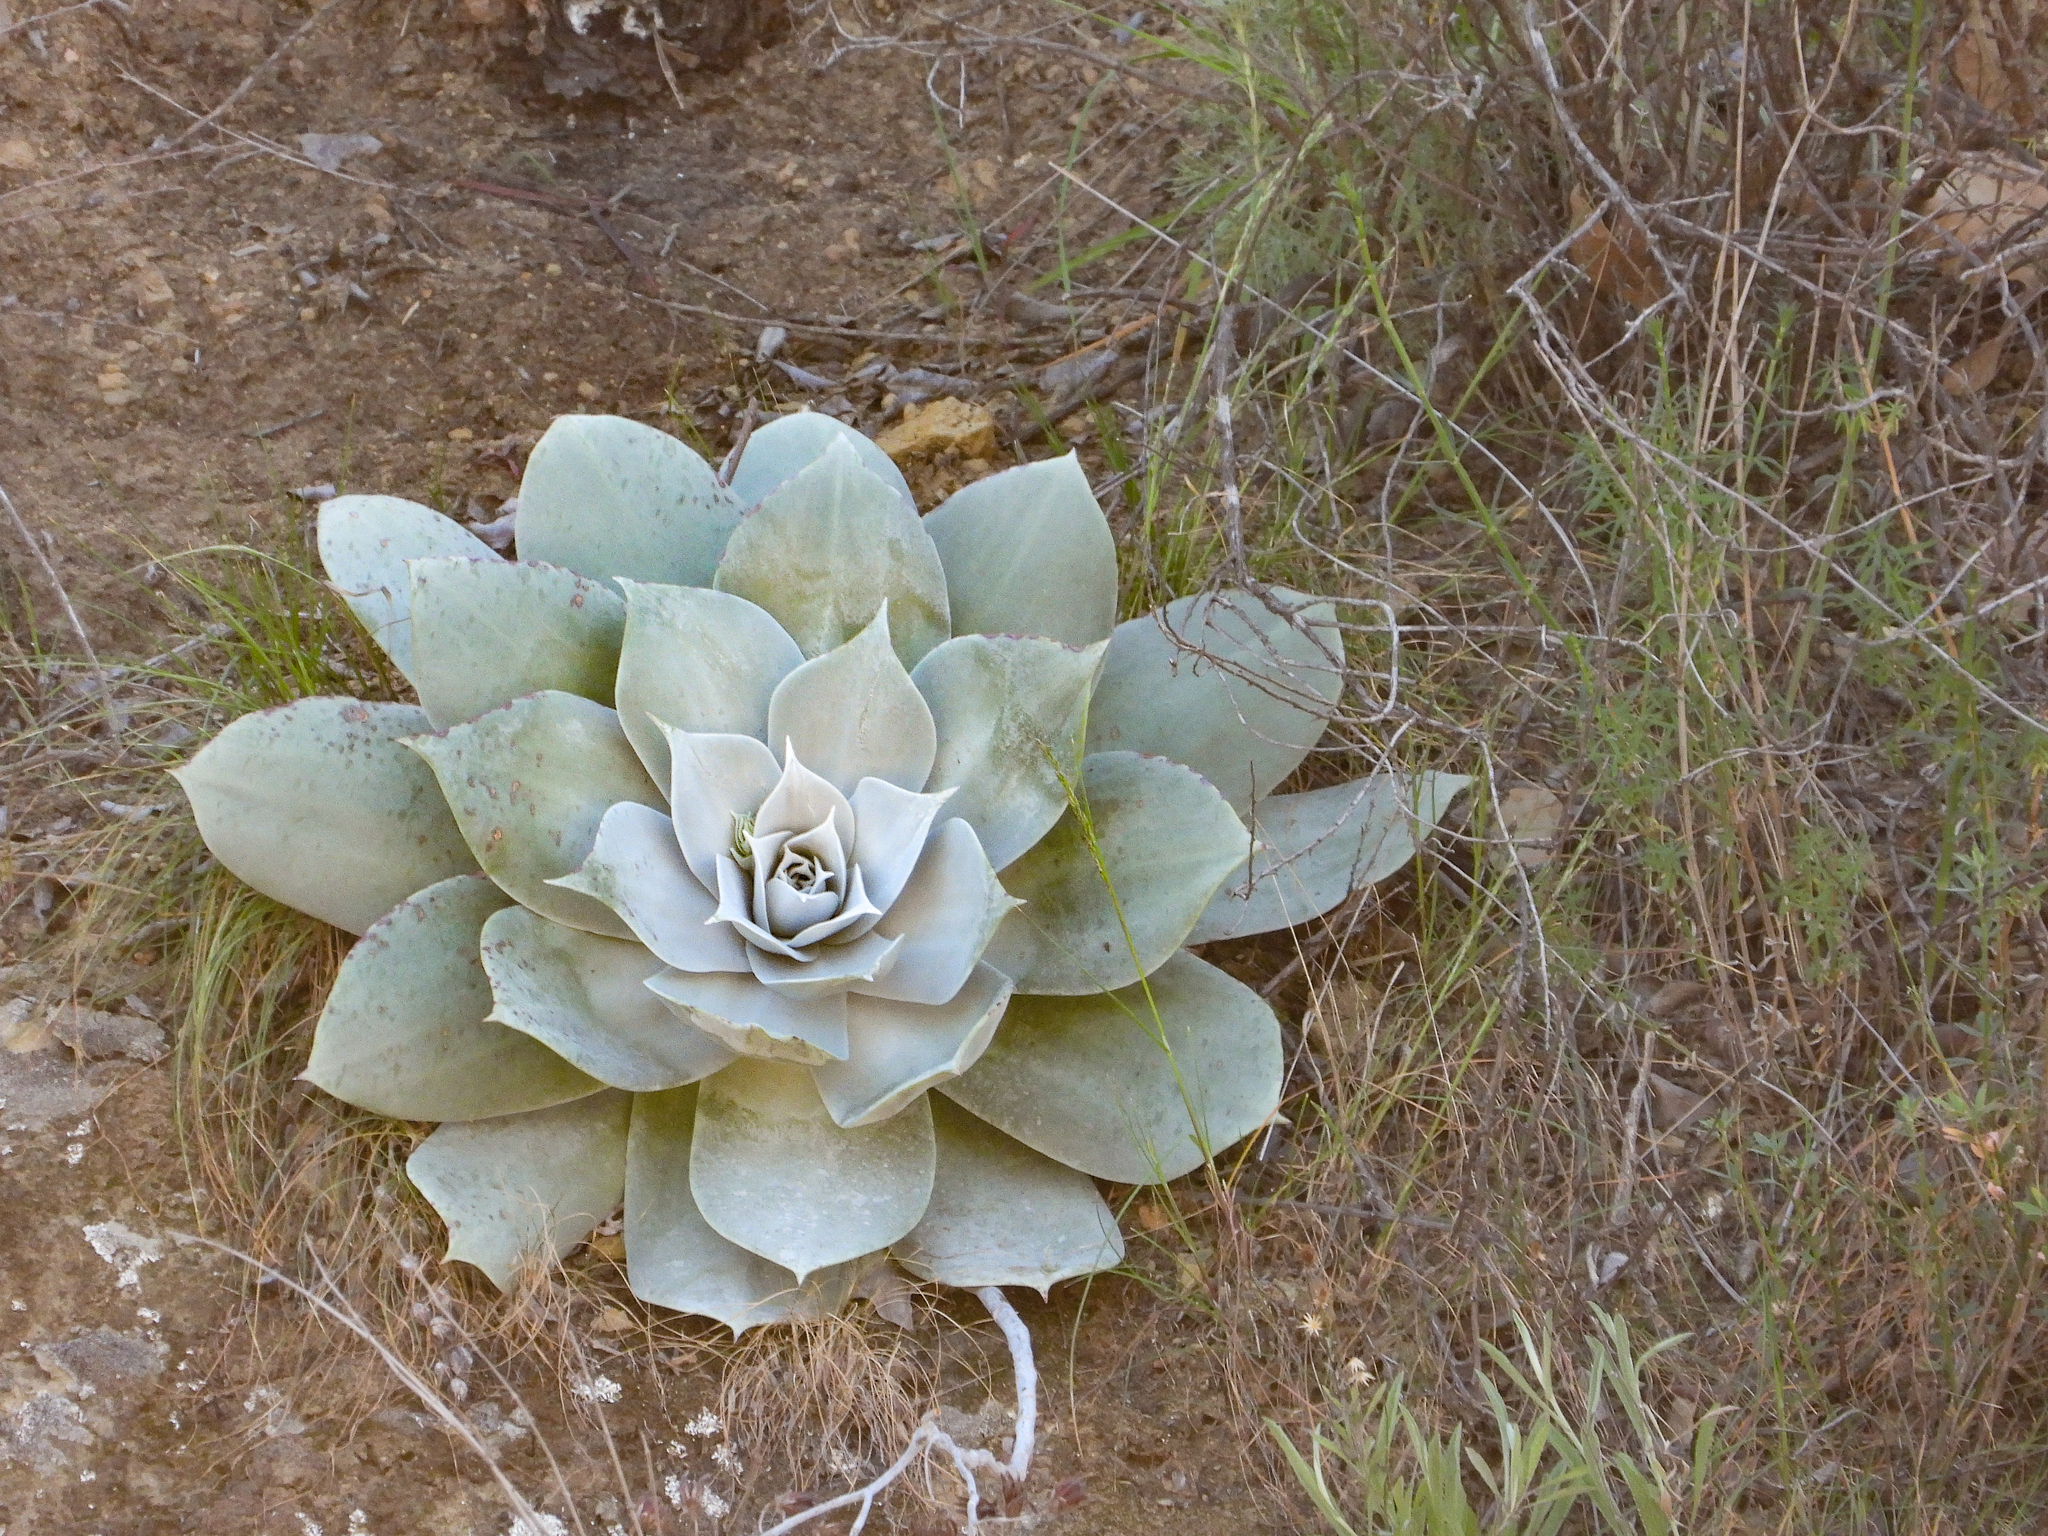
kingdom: Plantae
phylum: Tracheophyta
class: Magnoliopsida
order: Saxifragales
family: Crassulaceae
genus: Dudleya
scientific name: Dudleya pulverulenta
